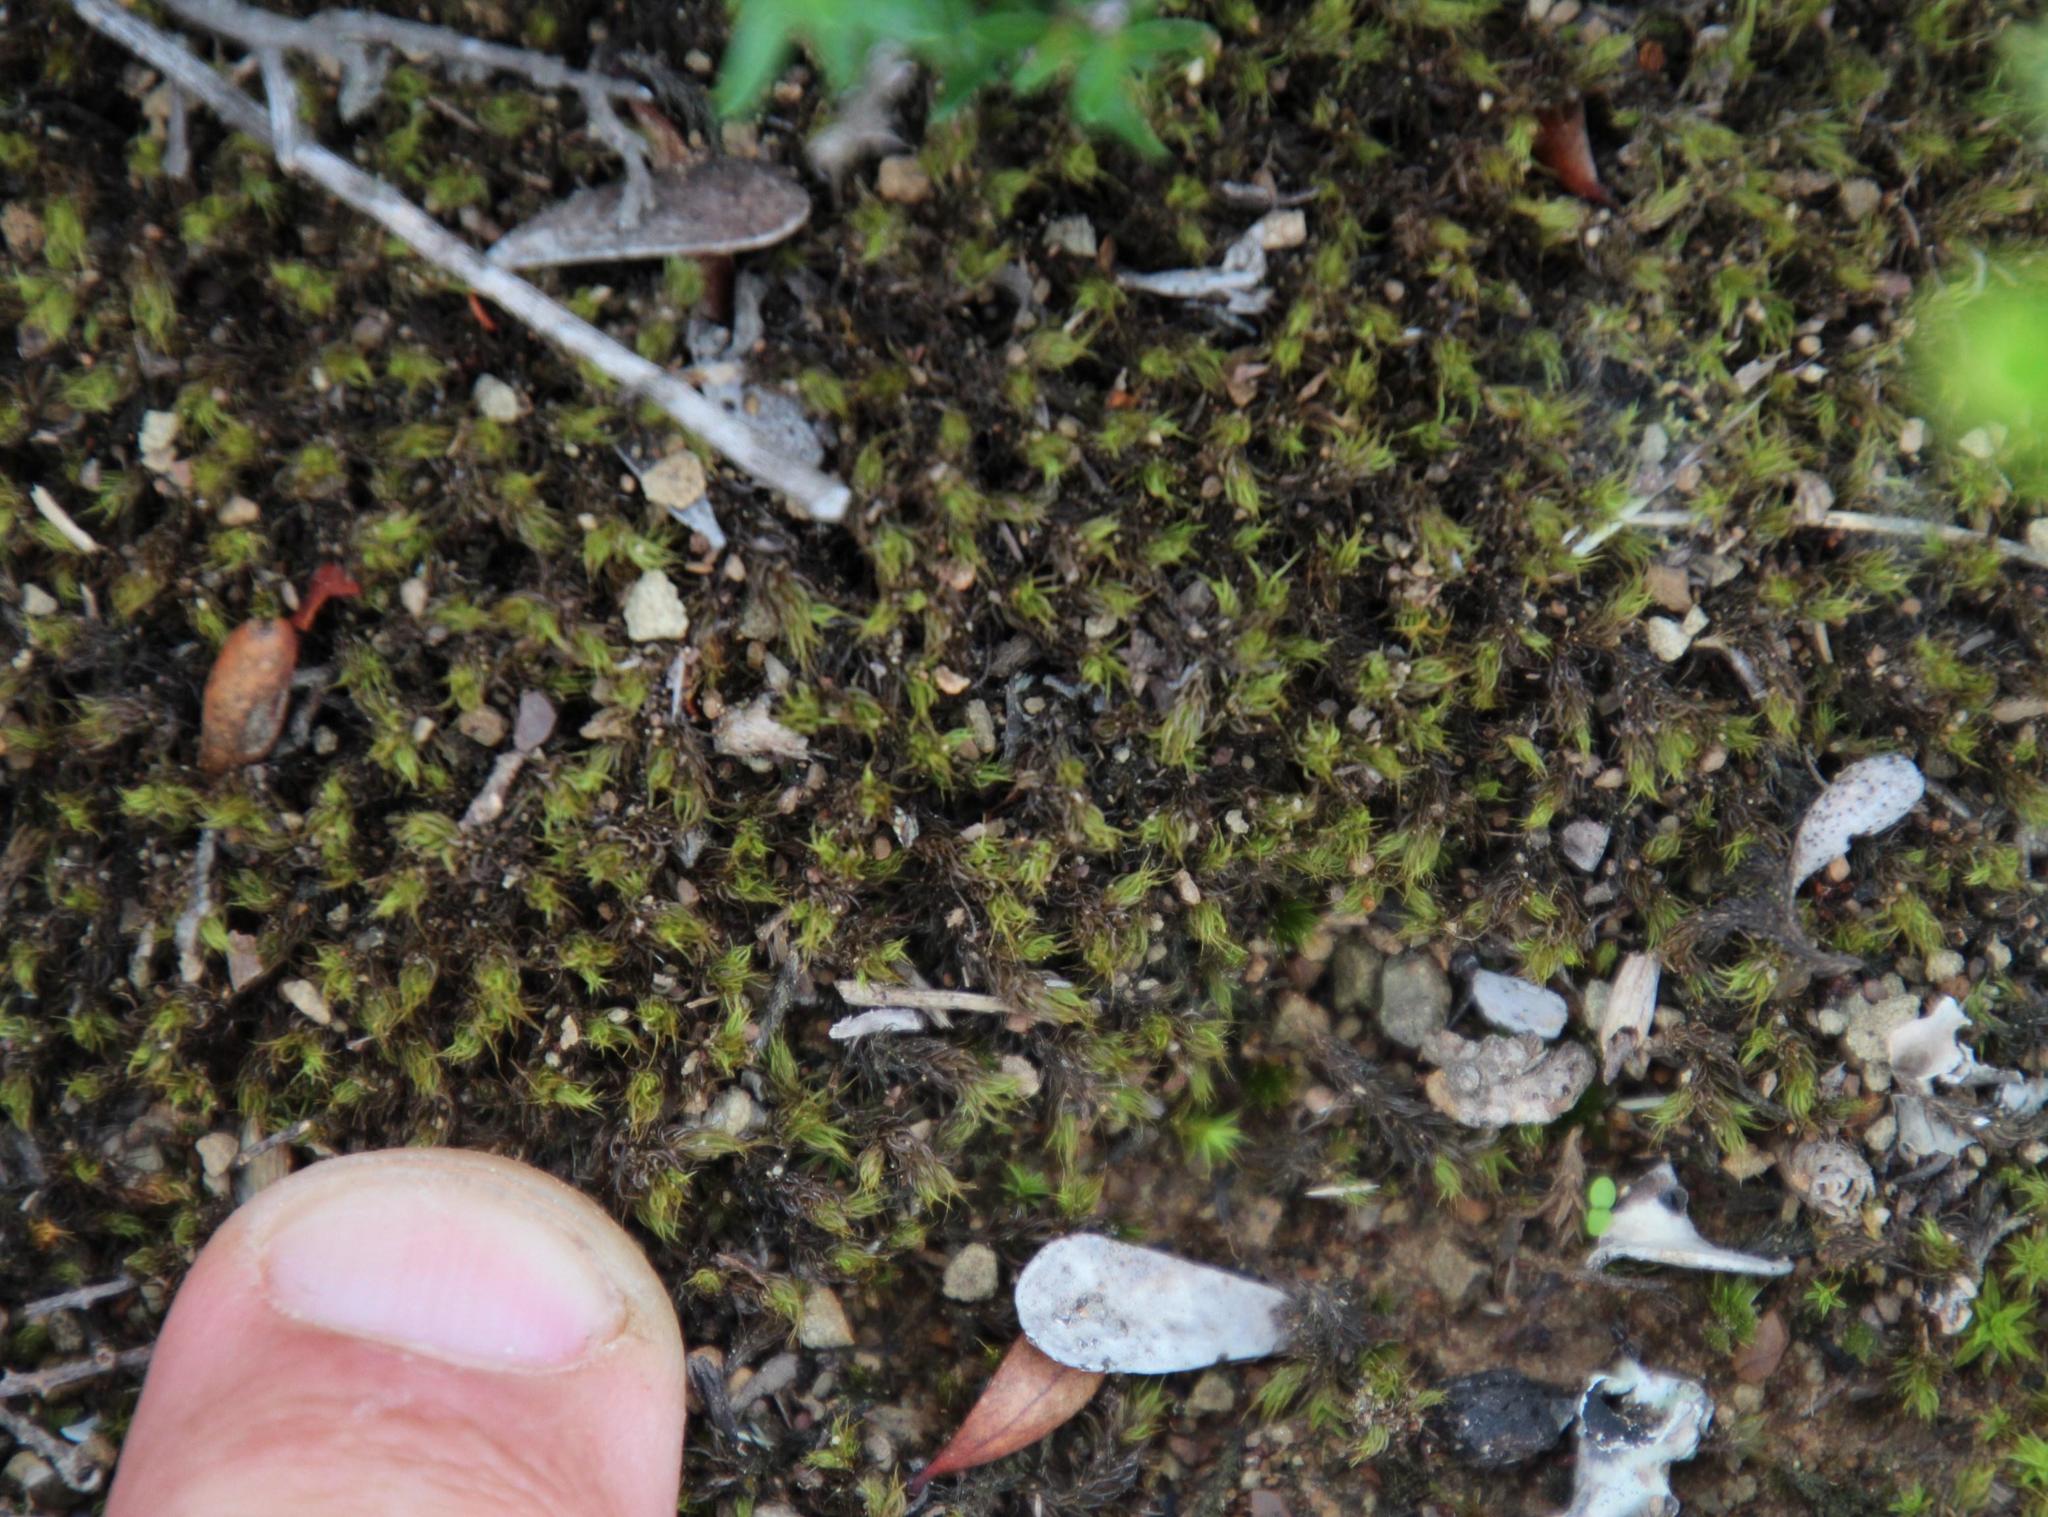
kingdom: Plantae
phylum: Bryophyta
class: Bryopsida
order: Pottiales
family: Pottiaceae
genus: Pseudocrossidium
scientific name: Pseudocrossidium crinitum
